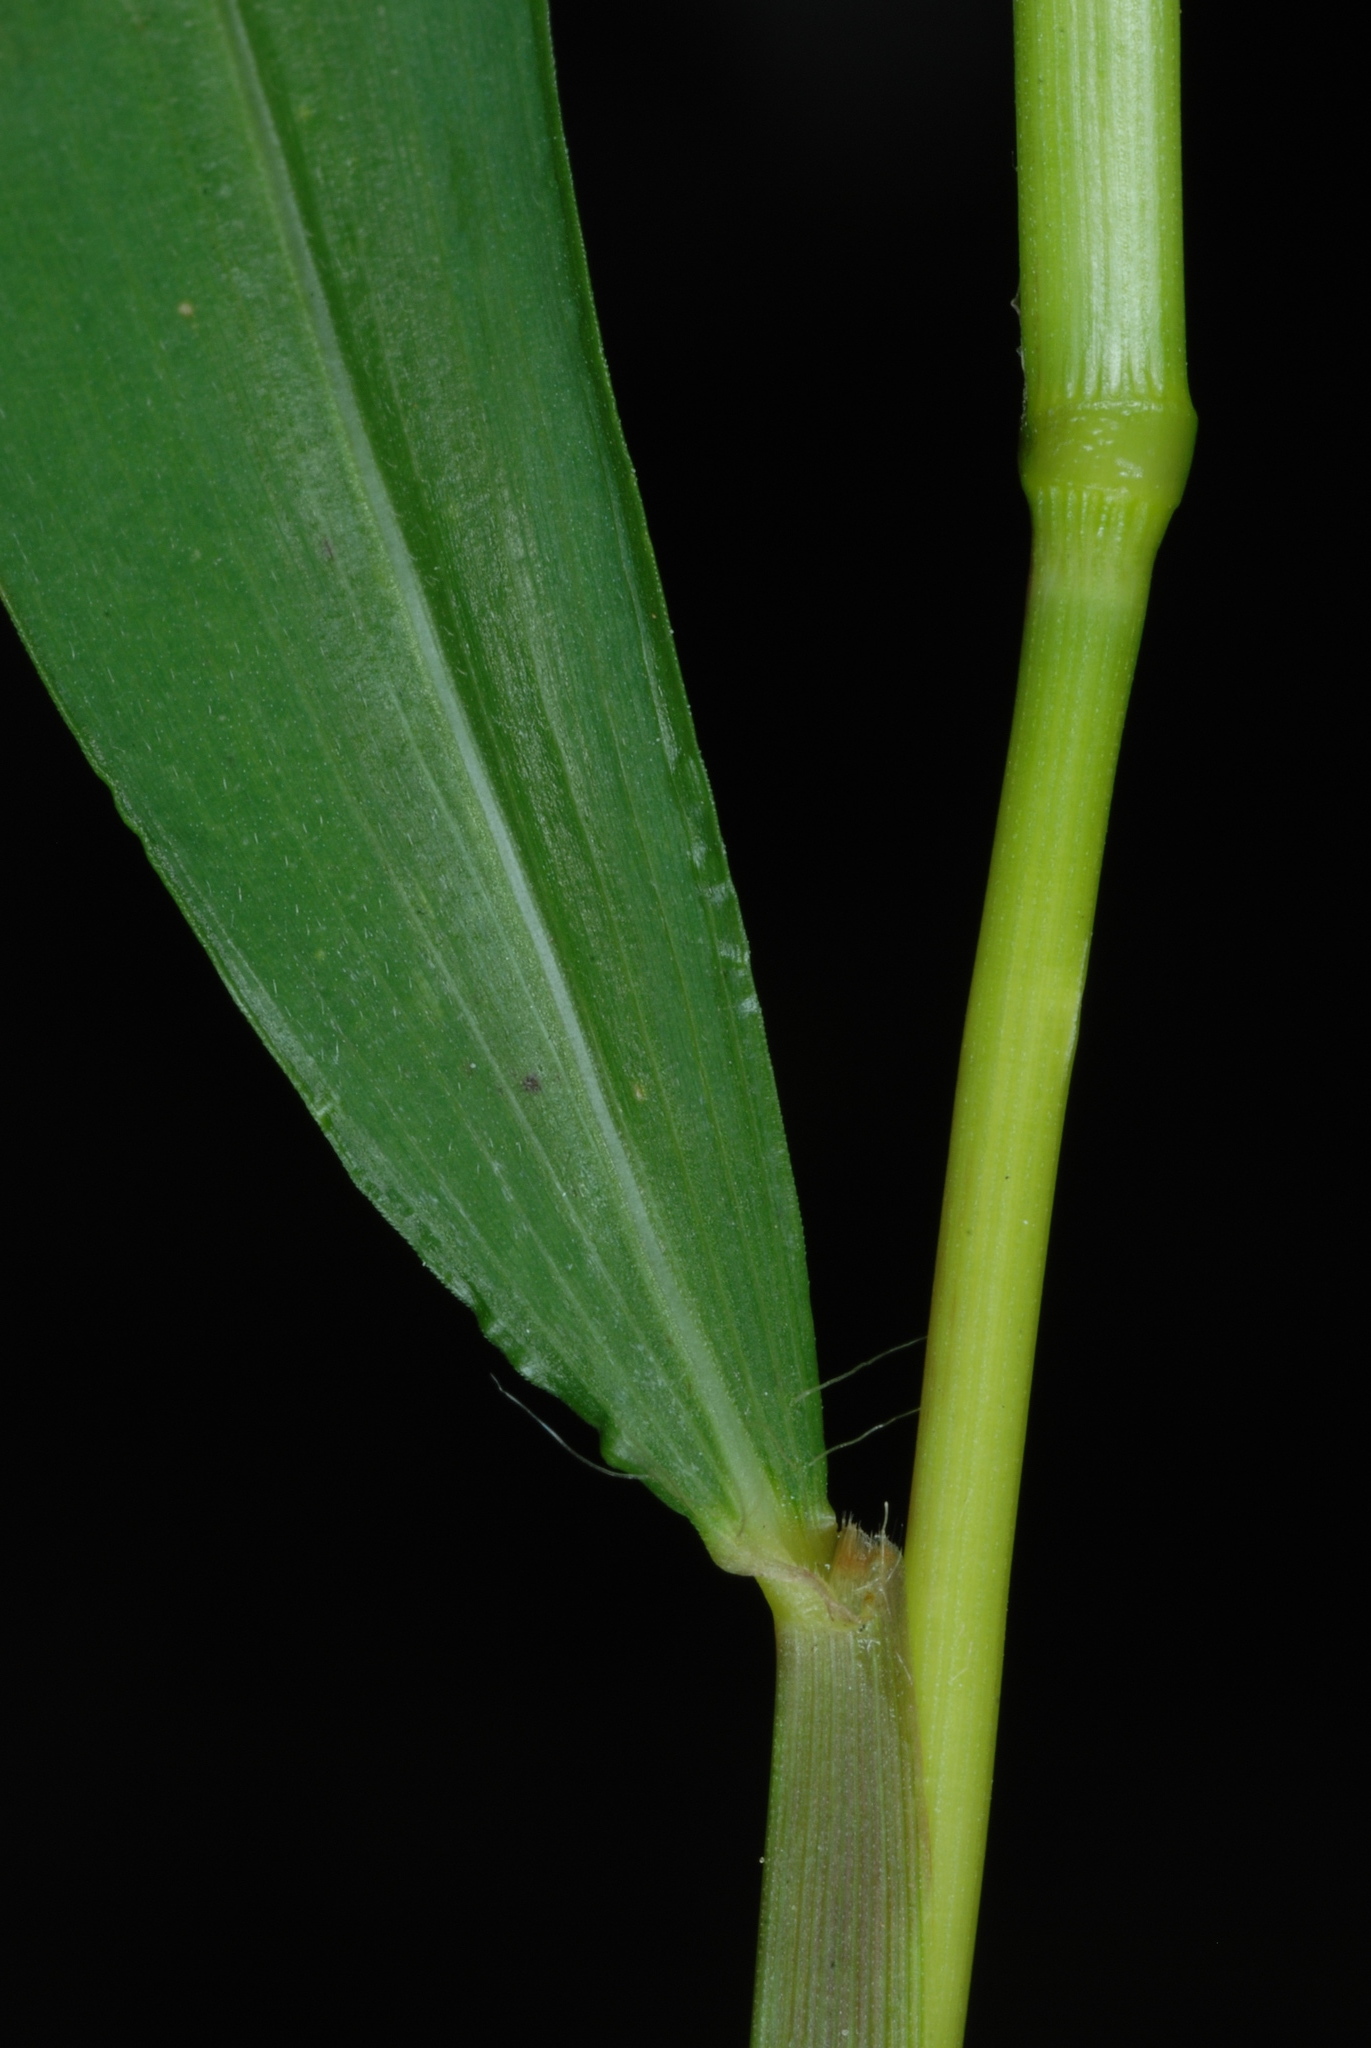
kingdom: Plantae
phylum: Tracheophyta
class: Liliopsida
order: Poales
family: Poaceae
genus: Microstegium
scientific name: Microstegium vimineum
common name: Japanese stiltgrass
